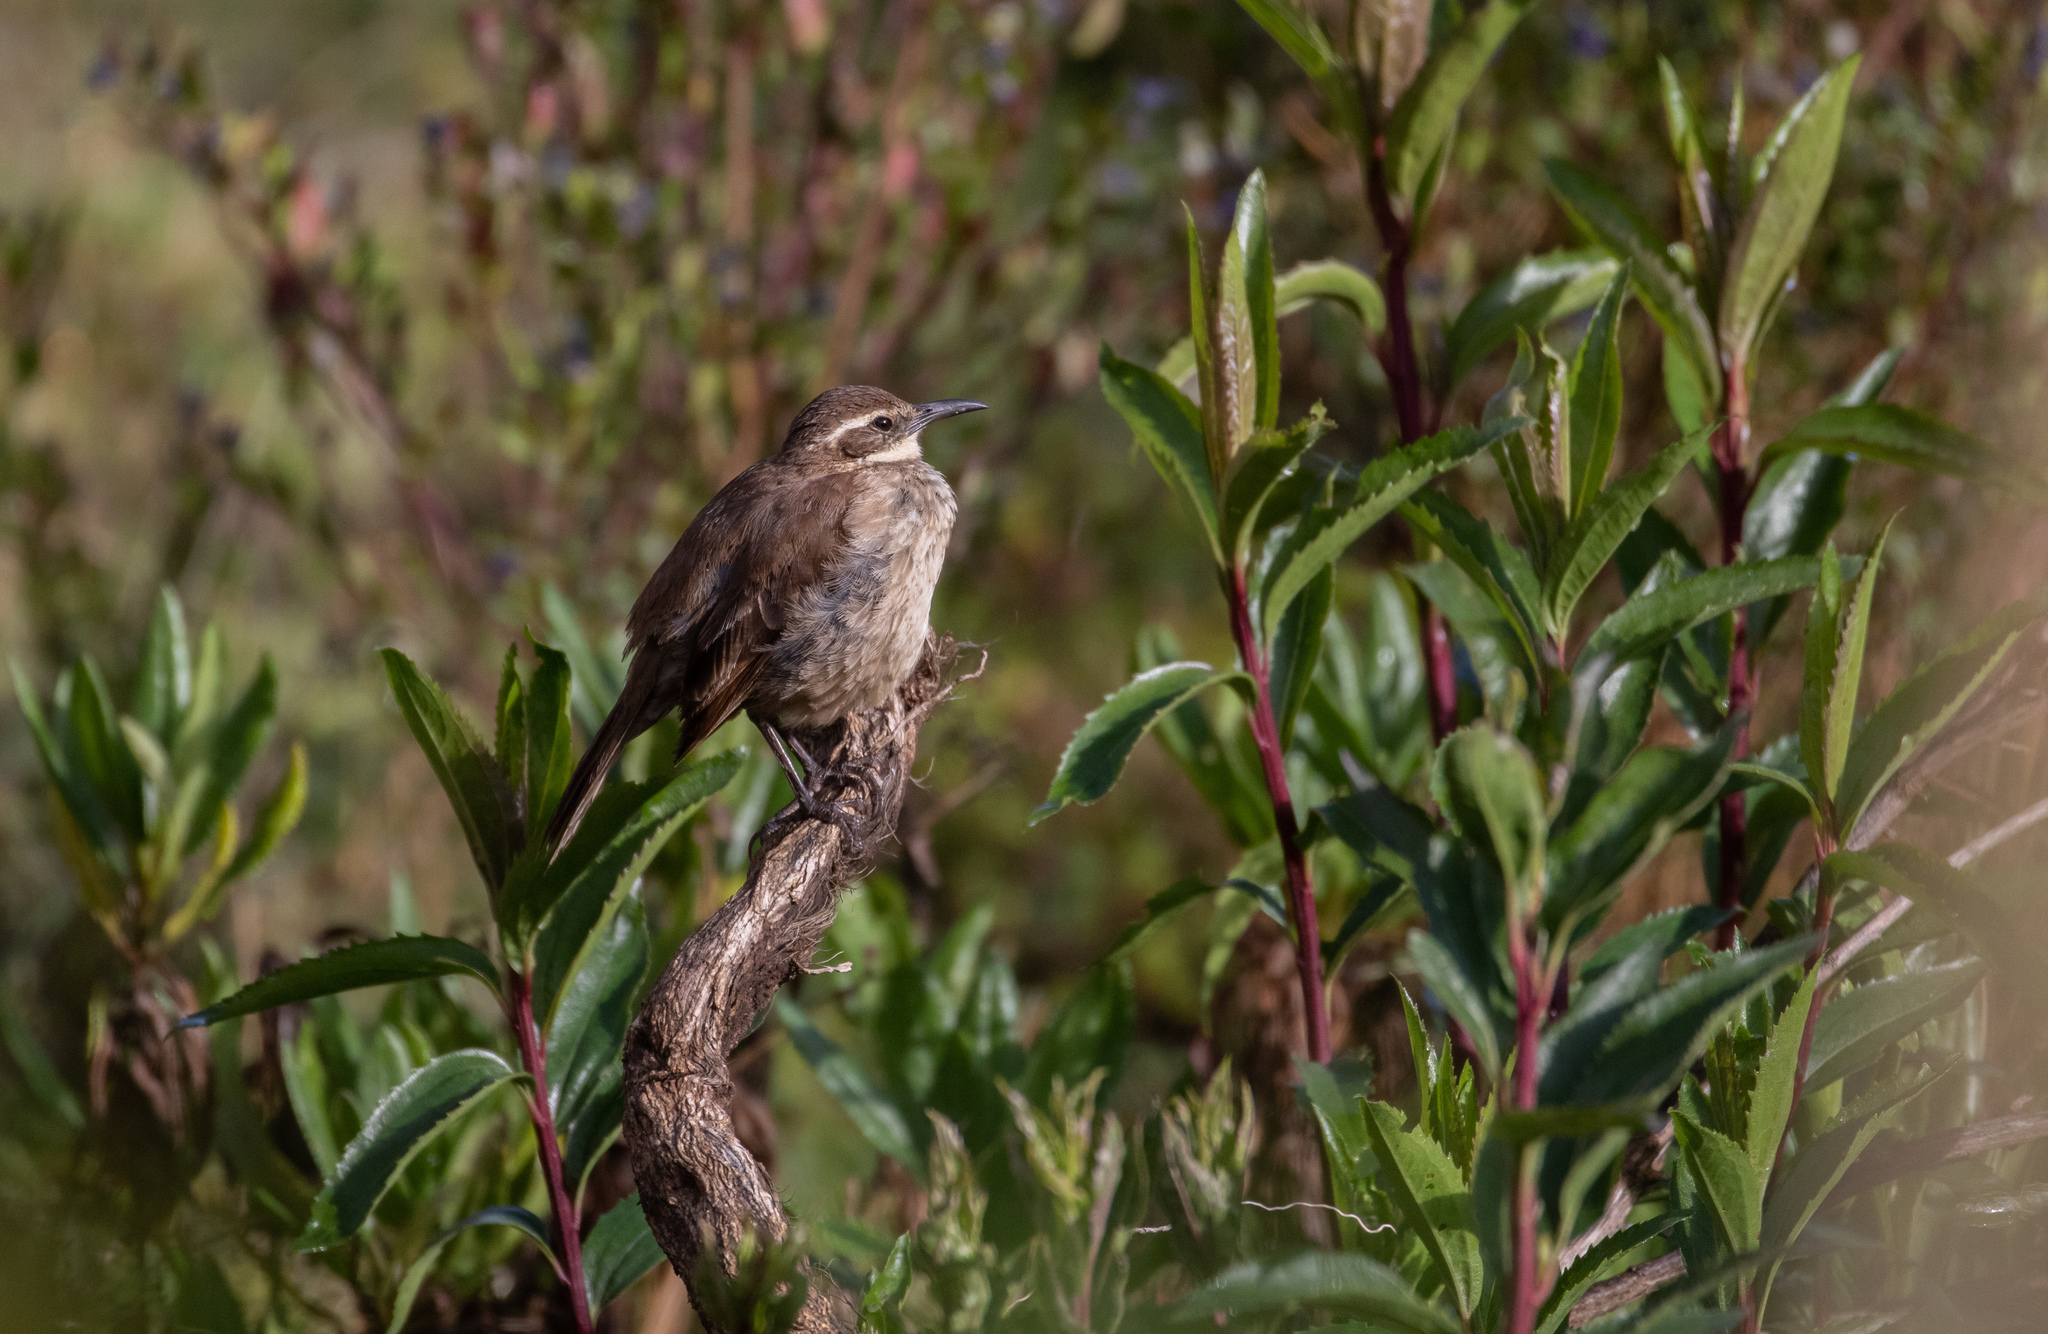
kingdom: Animalia
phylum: Chordata
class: Aves
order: Passeriformes
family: Furnariidae
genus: Cinclodes
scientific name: Cinclodes excelsior
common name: Stout-billed cinclodes
